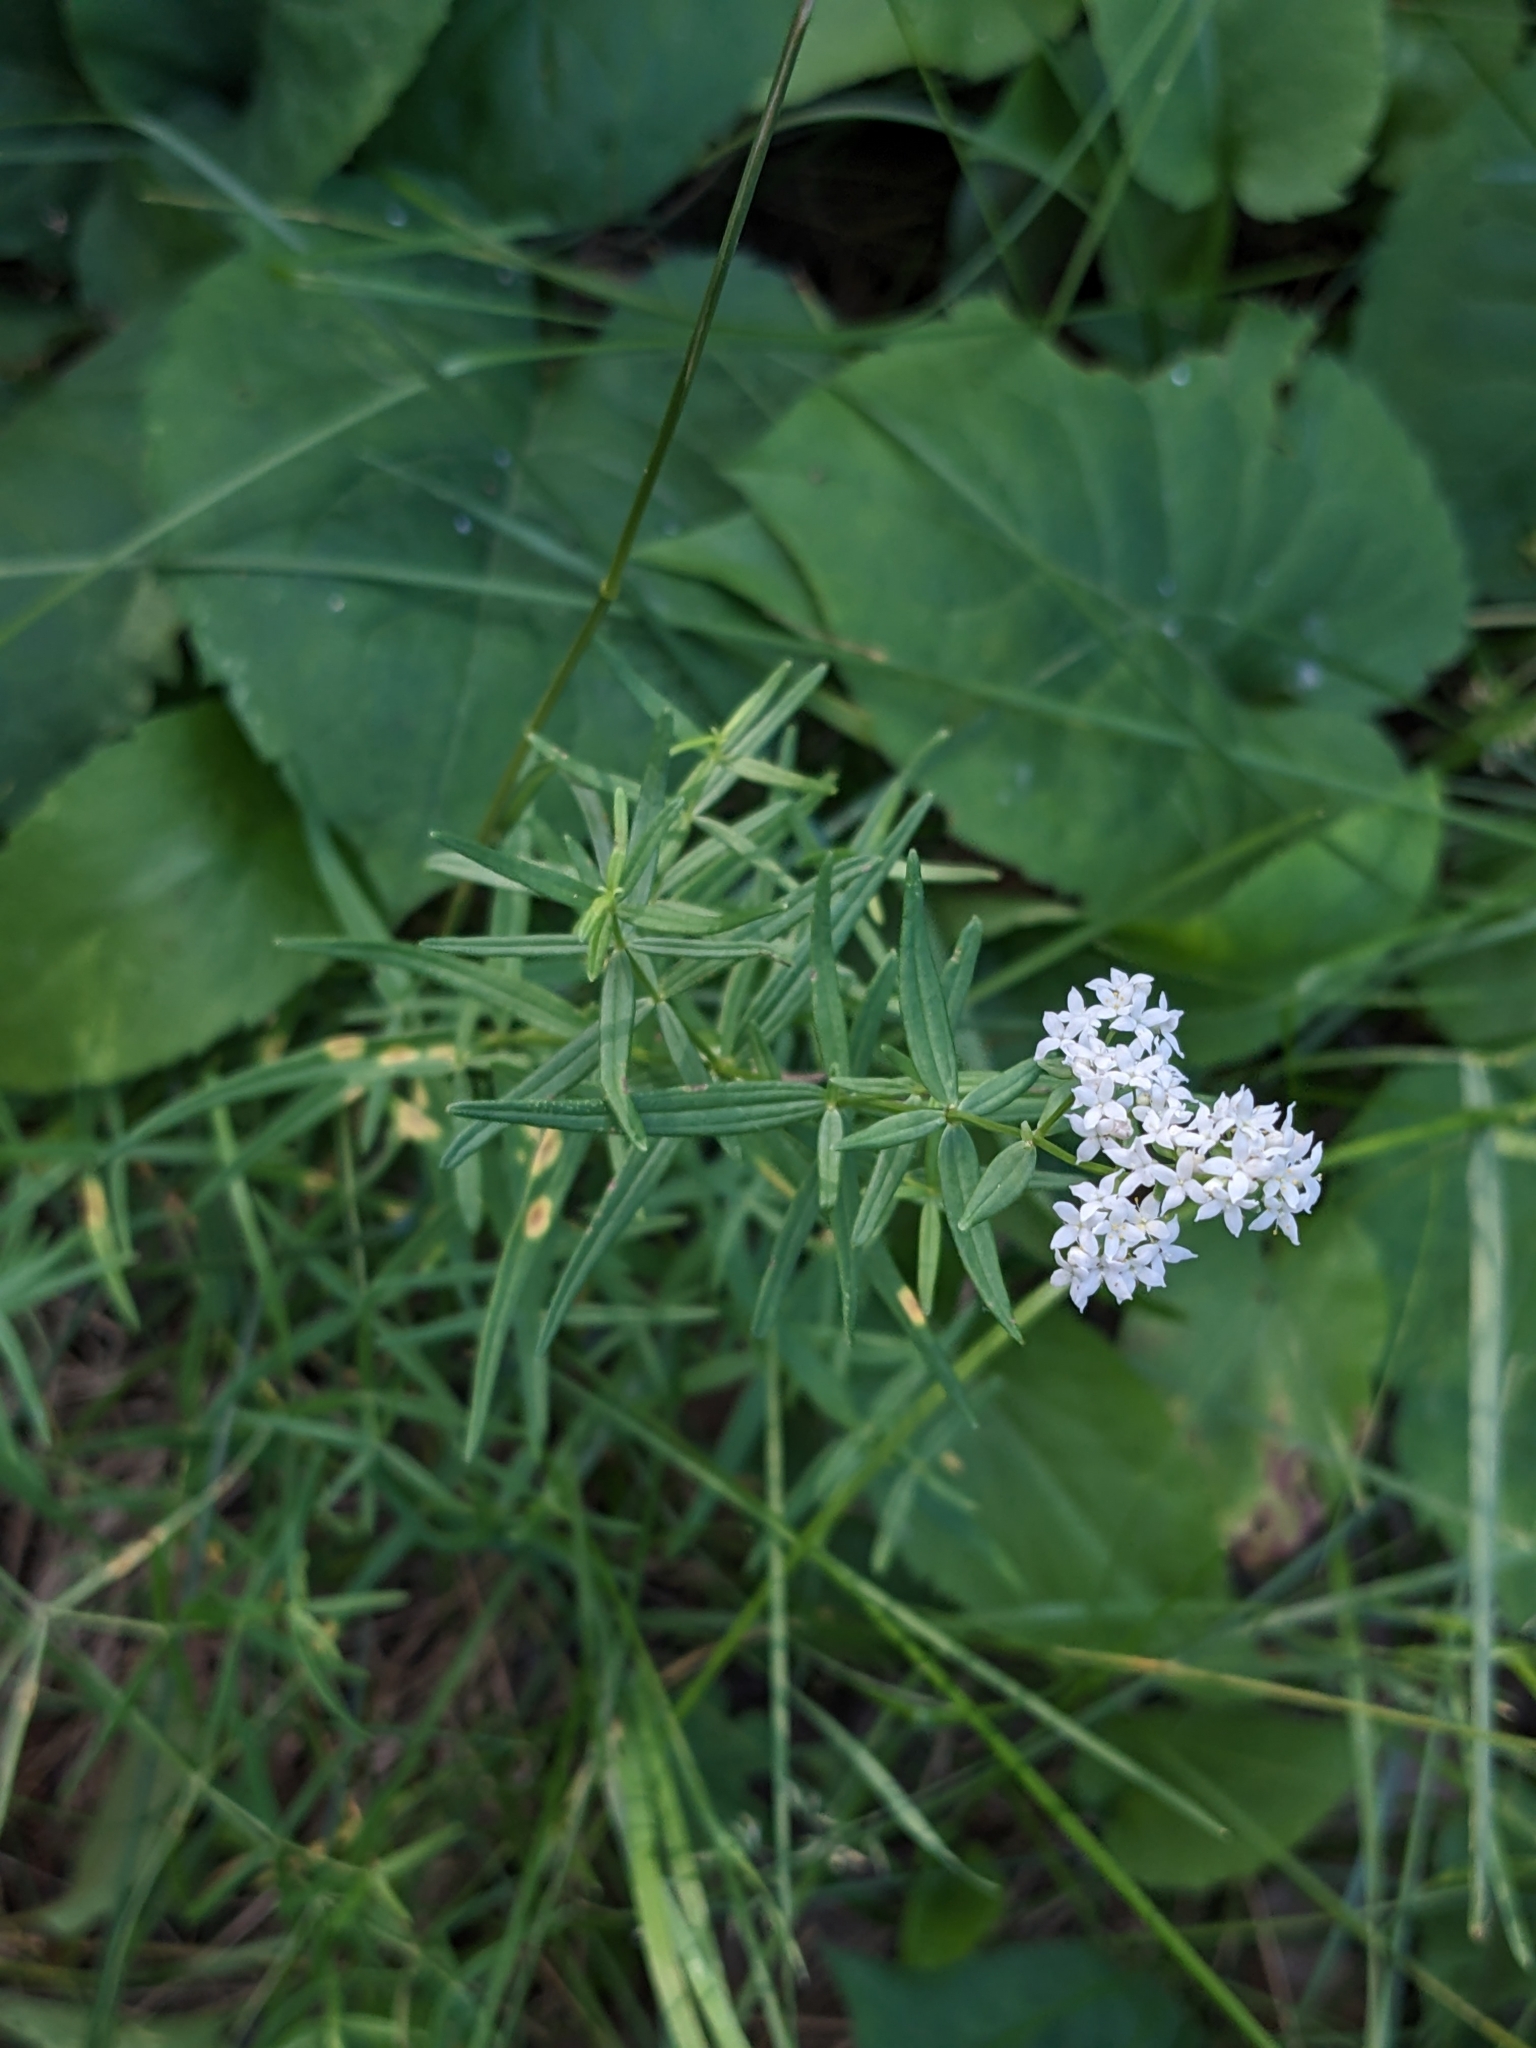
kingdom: Plantae
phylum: Tracheophyta
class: Magnoliopsida
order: Gentianales
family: Rubiaceae
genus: Galium
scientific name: Galium boreale
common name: Northern bedstraw
